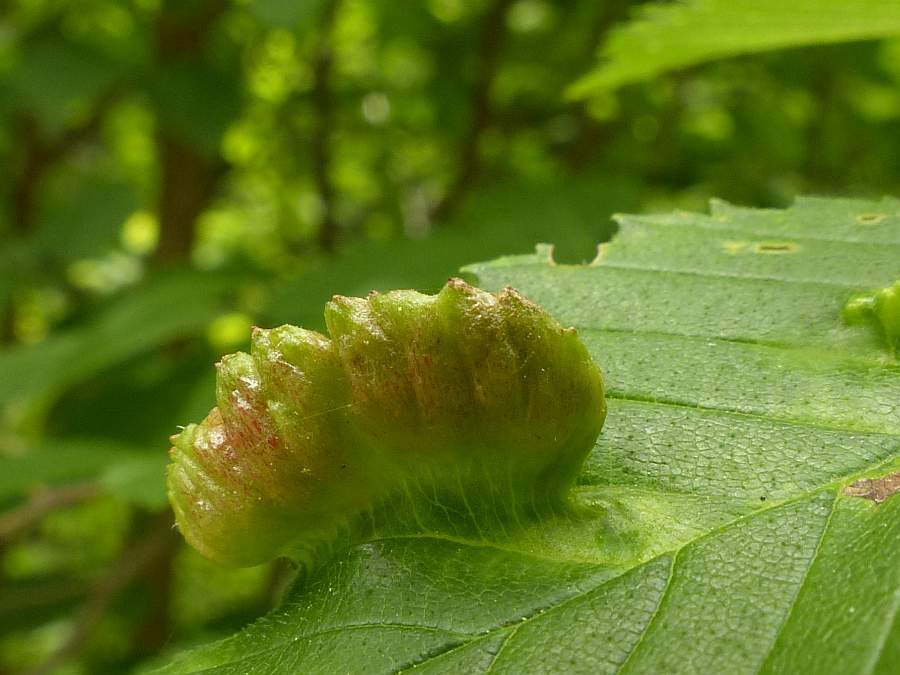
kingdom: Animalia
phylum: Arthropoda
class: Insecta
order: Hemiptera
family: Aphididae
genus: Colopha
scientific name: Colopha ulmicola
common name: Elm cockscombgall aphid
